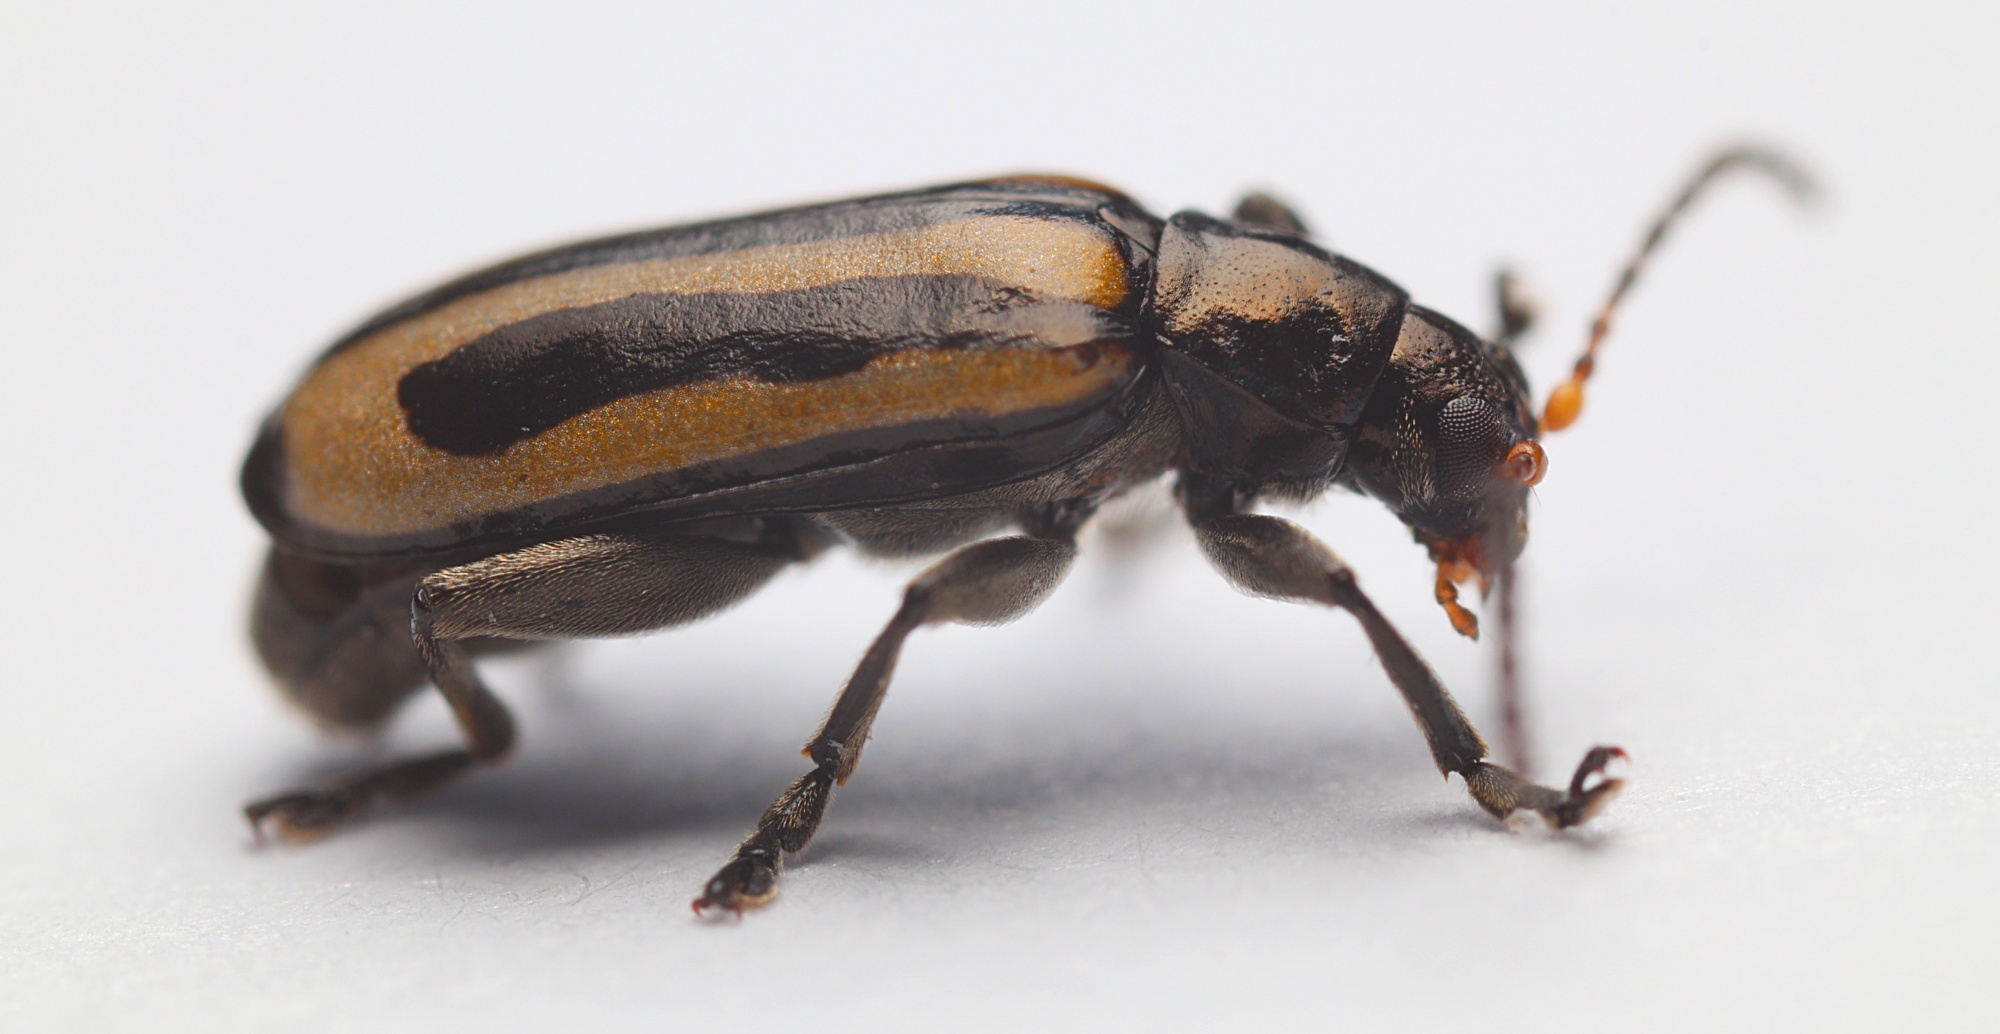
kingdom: Animalia
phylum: Arthropoda
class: Insecta
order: Coleoptera
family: Chrysomelidae
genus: Agasicles
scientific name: Agasicles hygrophila
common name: Alligatorweed flea beetle
